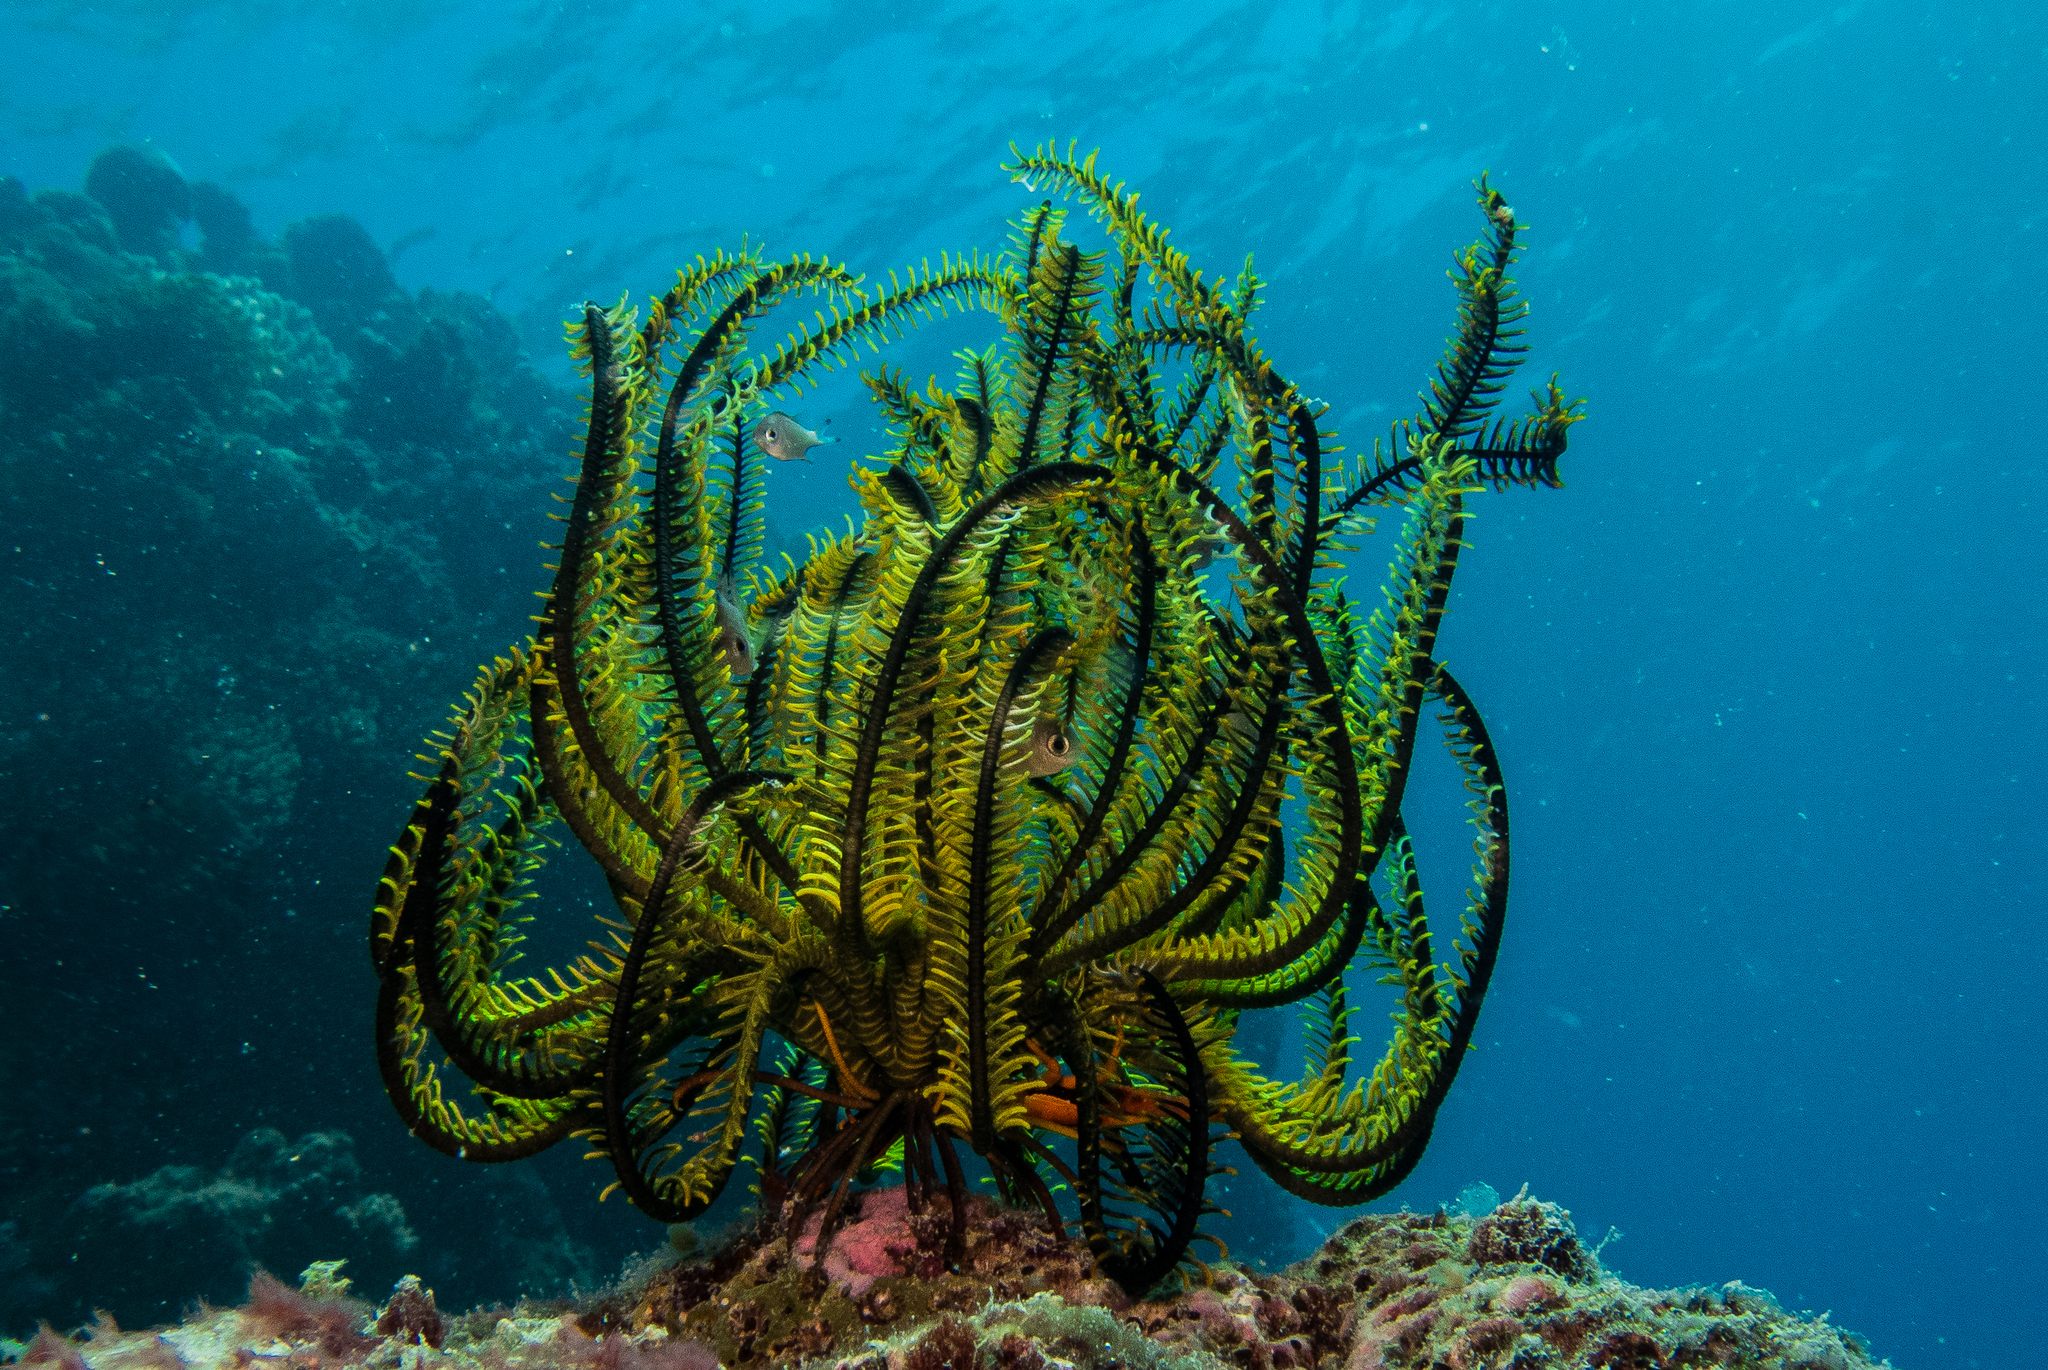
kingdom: Animalia
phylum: Echinodermata
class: Crinoidea
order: Comatulida
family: Comatulidae
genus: Anneissia
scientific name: Anneissia bennetti
